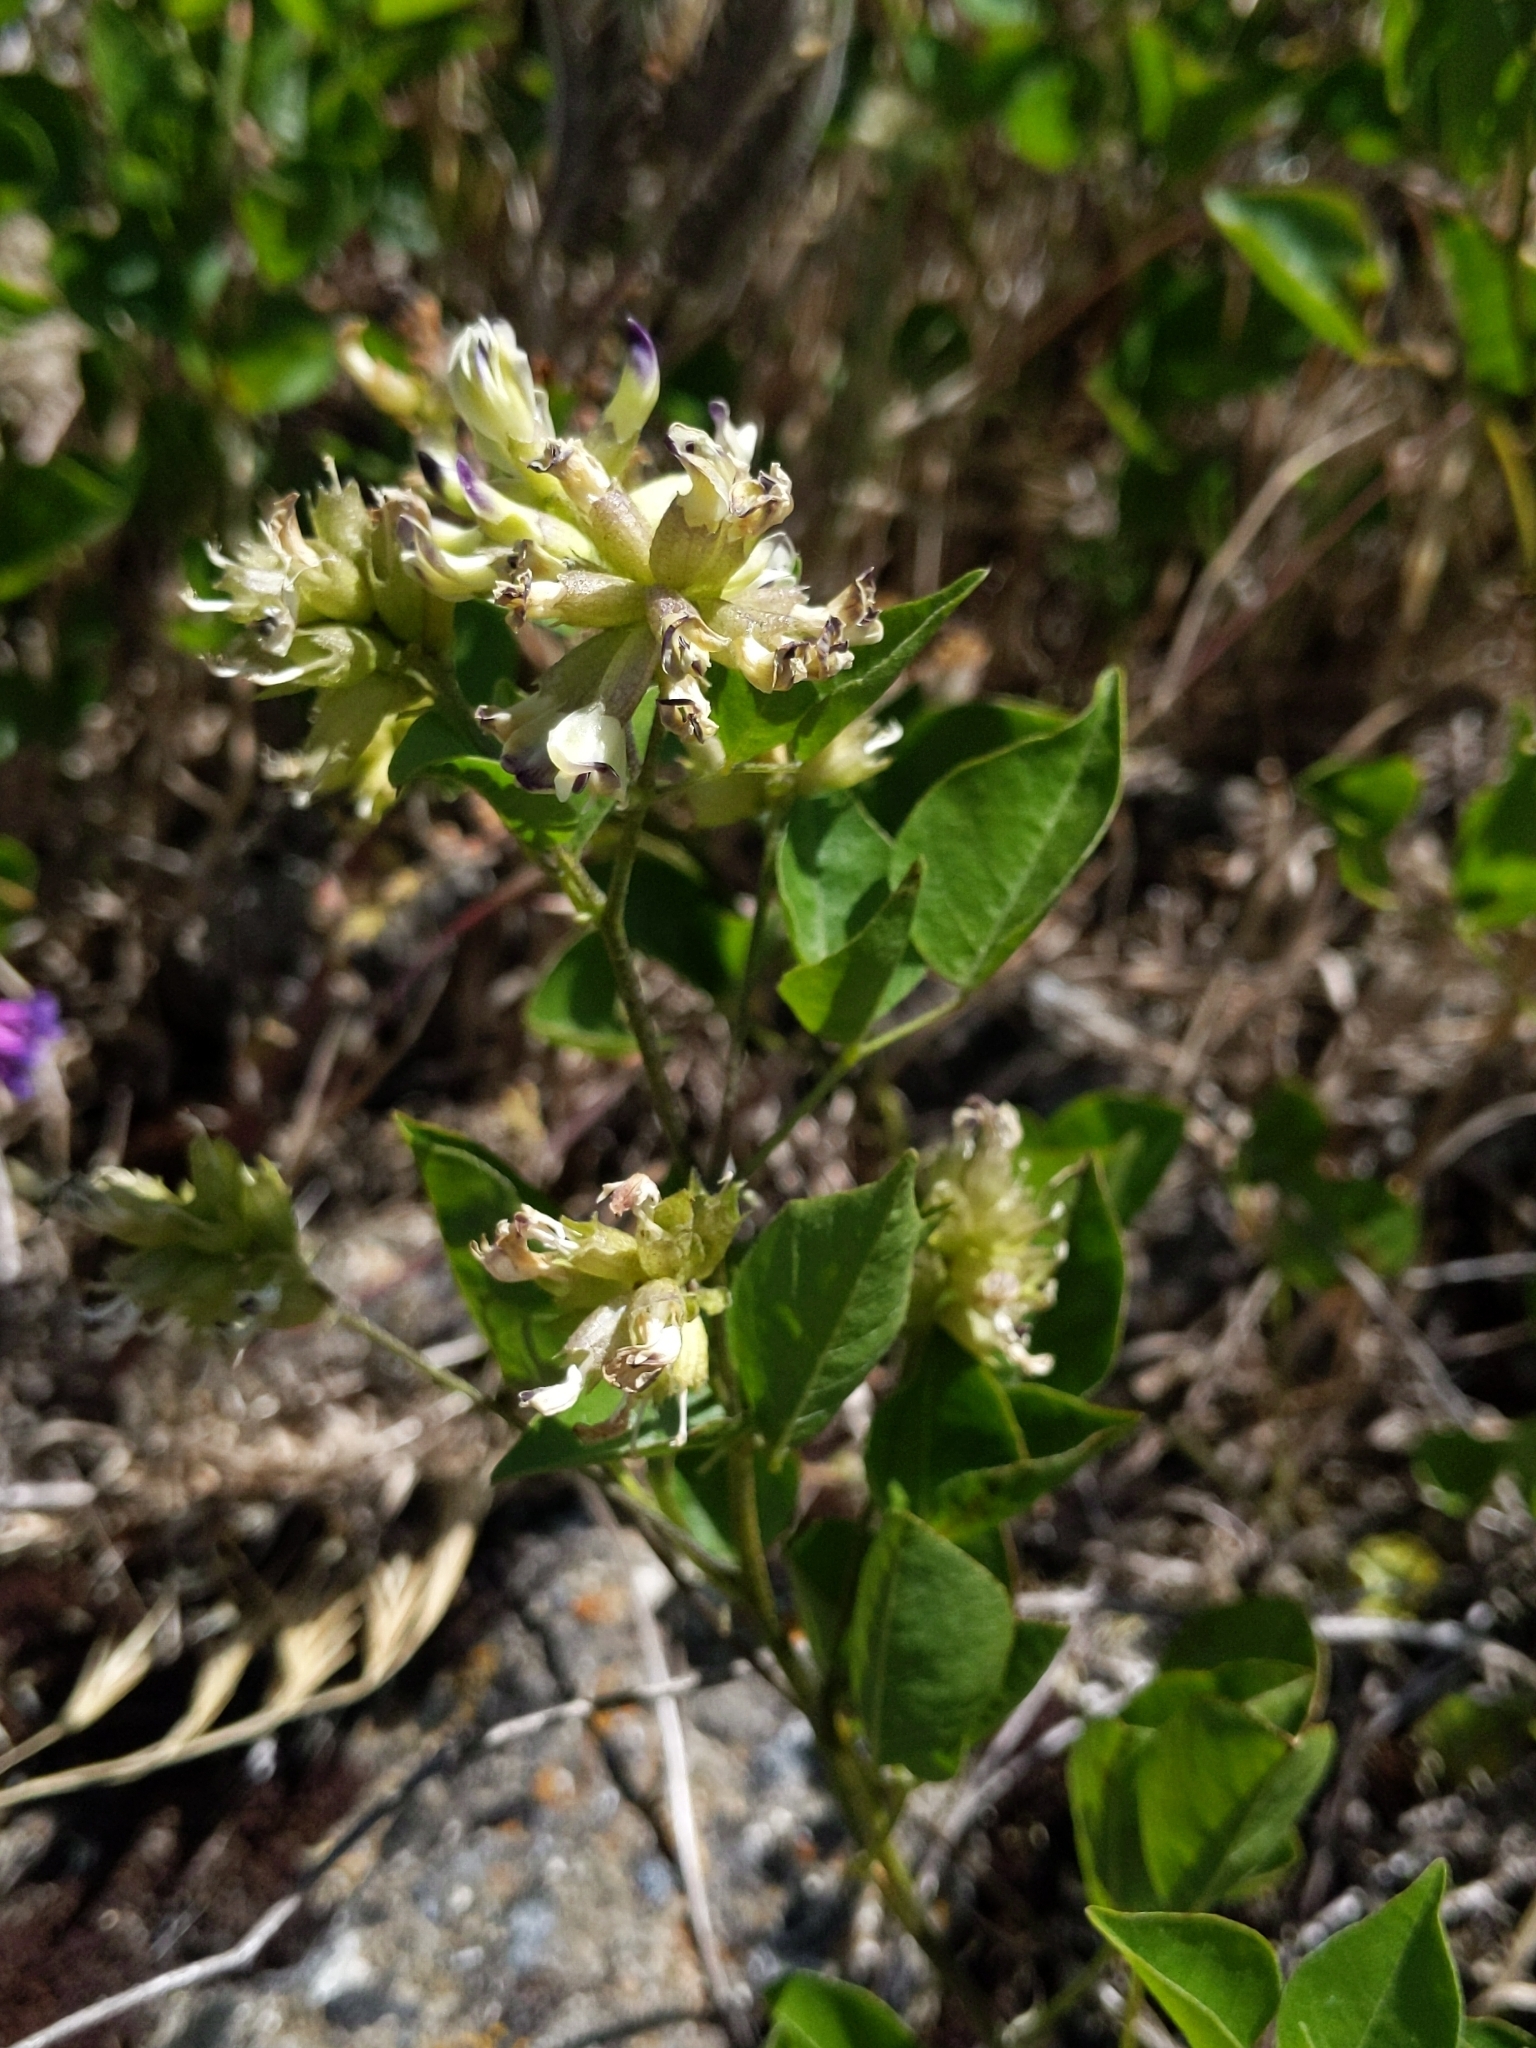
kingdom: Plantae
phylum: Tracheophyta
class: Magnoliopsida
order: Fabales
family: Fabaceae
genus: Rupertia
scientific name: Rupertia physodes
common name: California-tea
